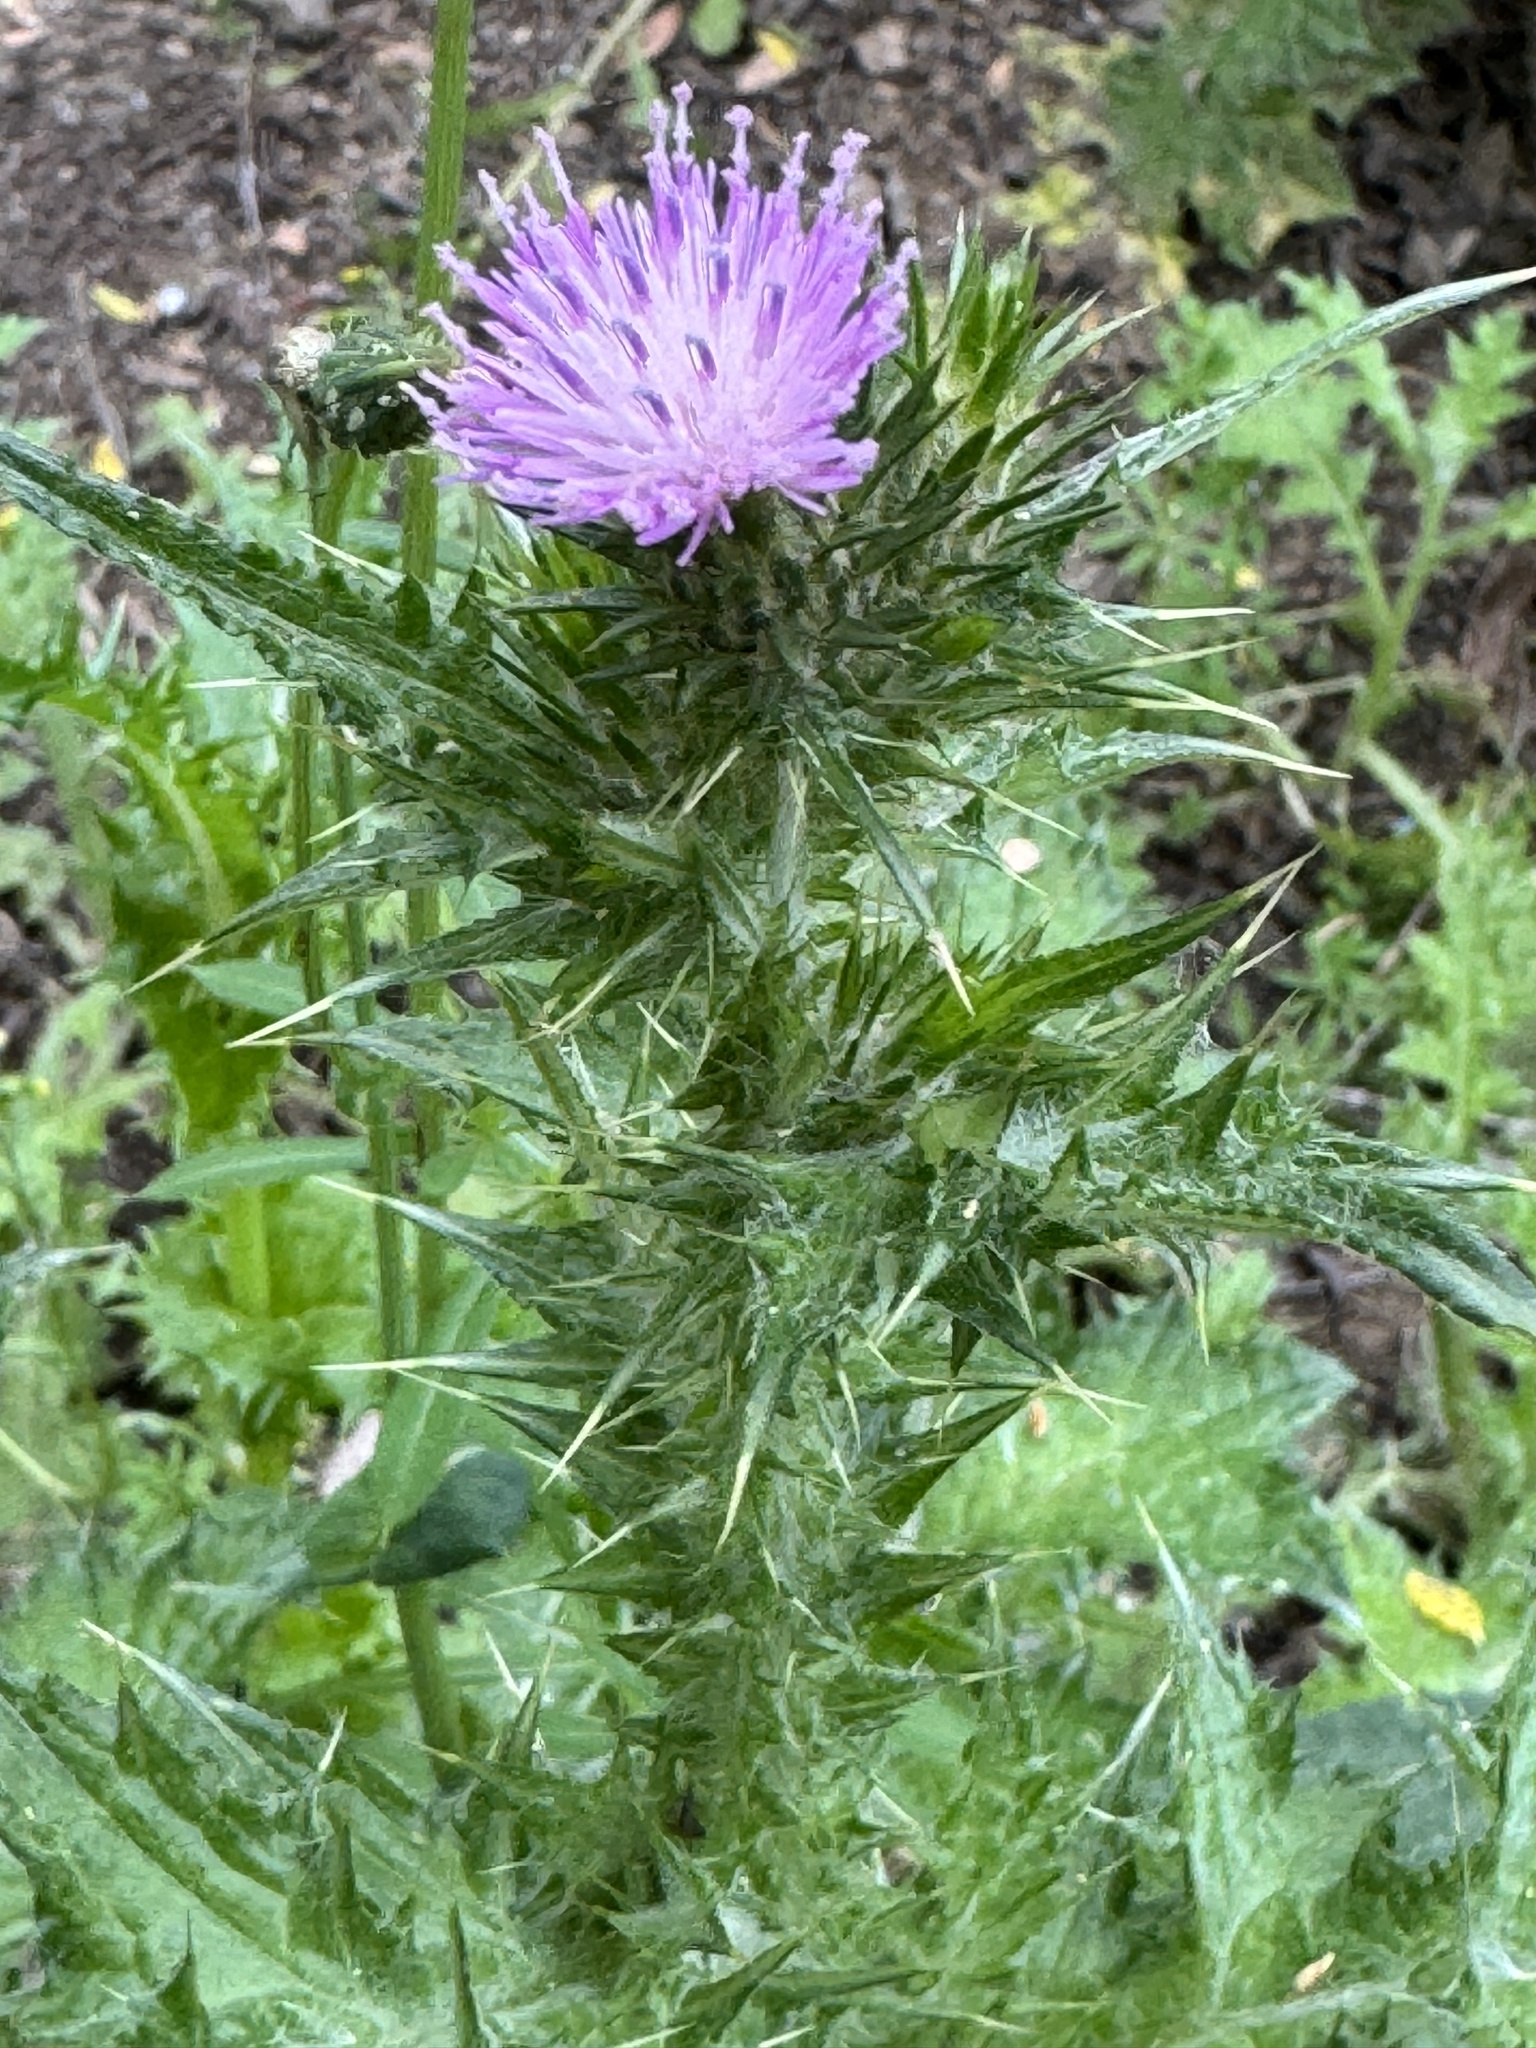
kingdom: Plantae
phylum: Tracheophyta
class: Magnoliopsida
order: Asterales
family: Asteraceae
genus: Carduus
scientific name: Carduus pycnocephalus
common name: Plymouth thistle
